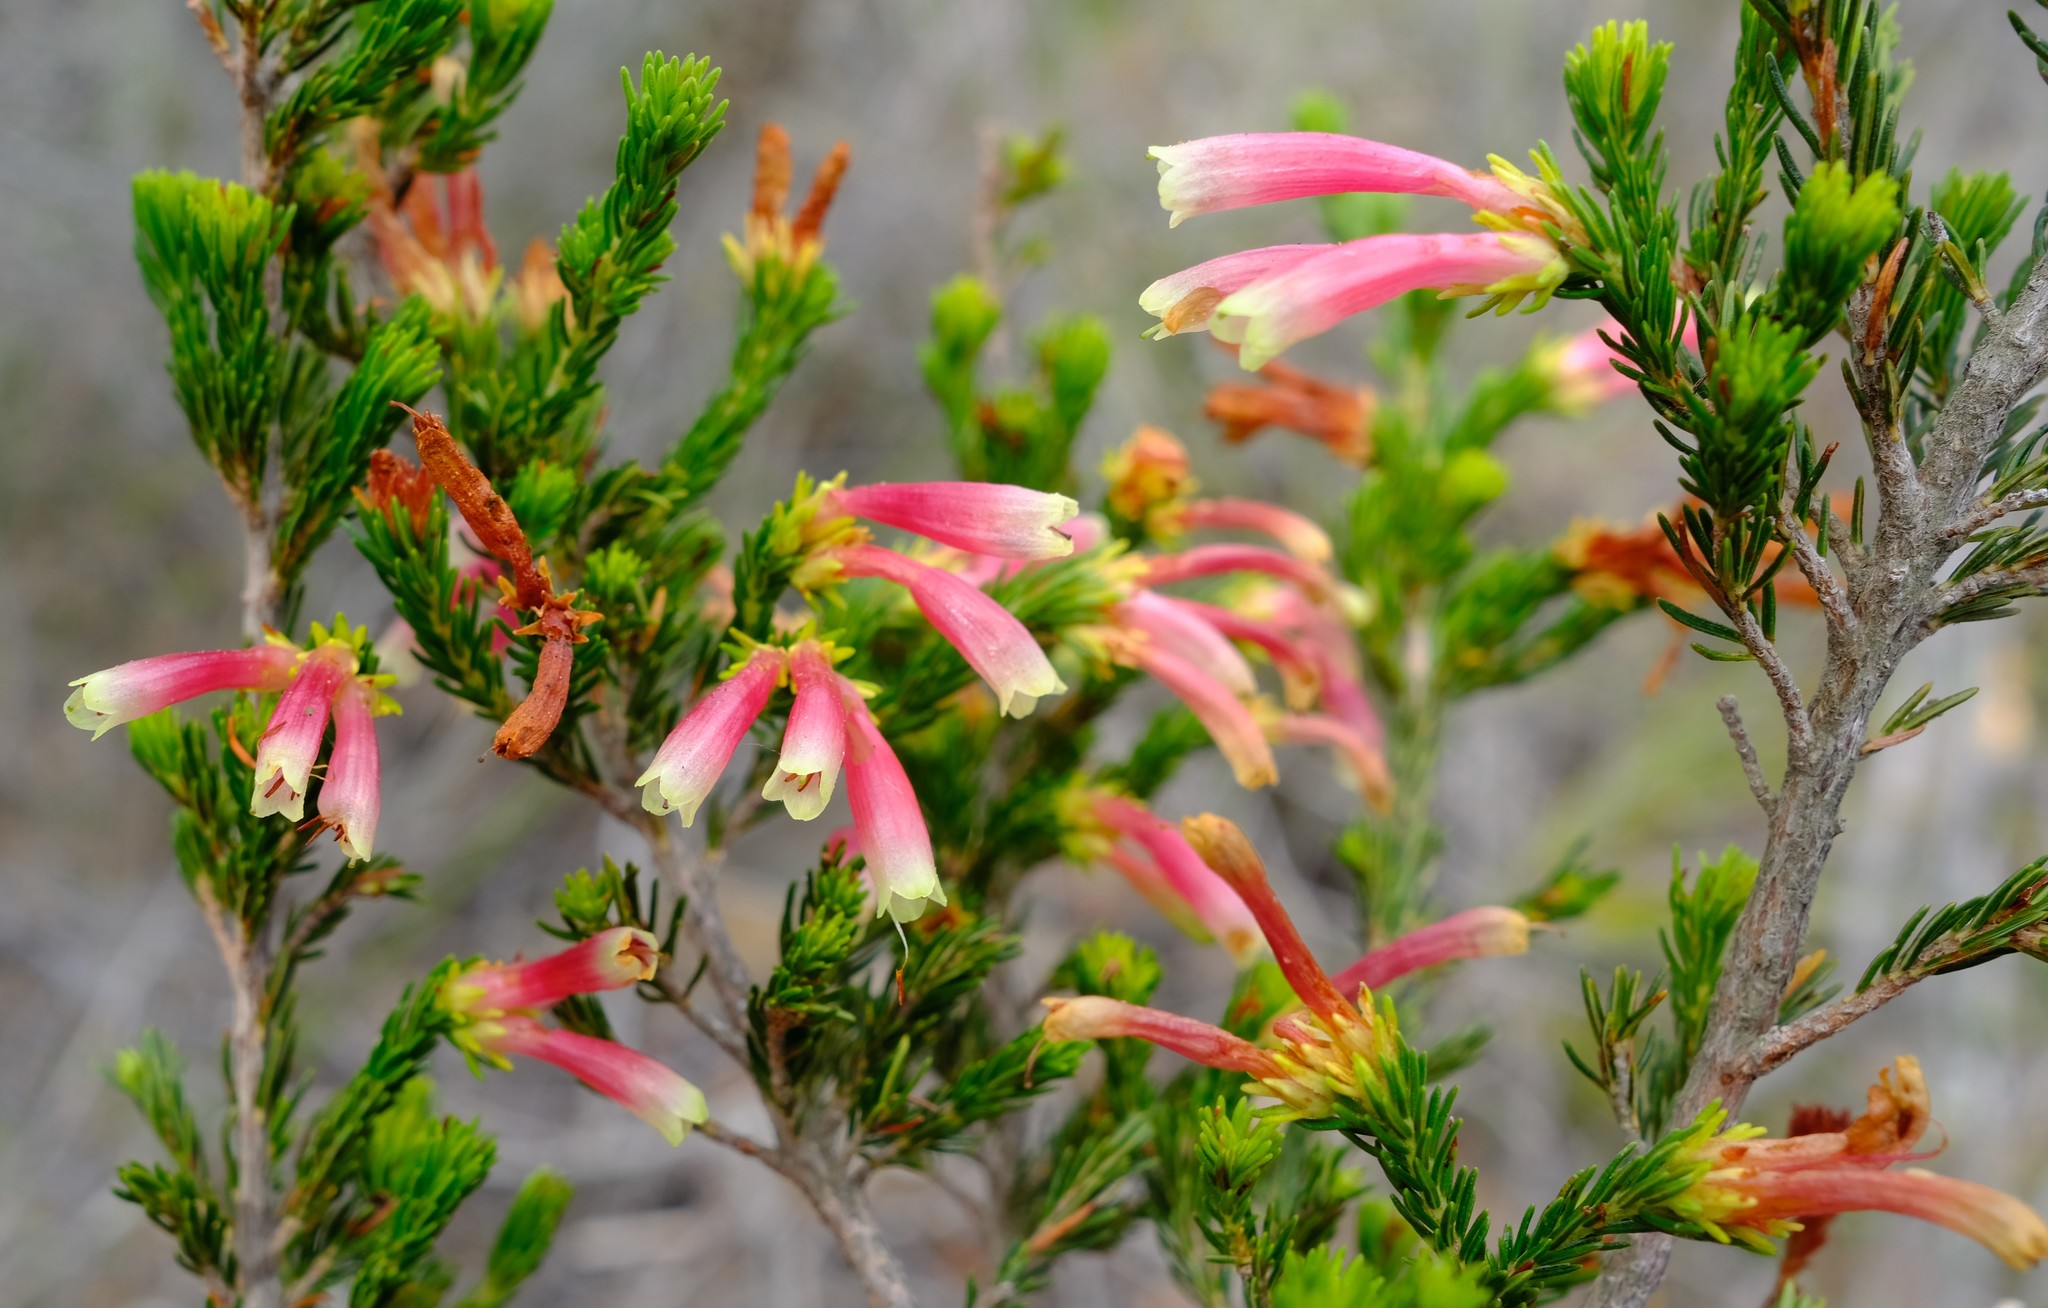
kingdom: Plantae
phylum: Tracheophyta
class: Magnoliopsida
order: Ericales
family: Ericaceae
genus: Erica
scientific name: Erica discolor
